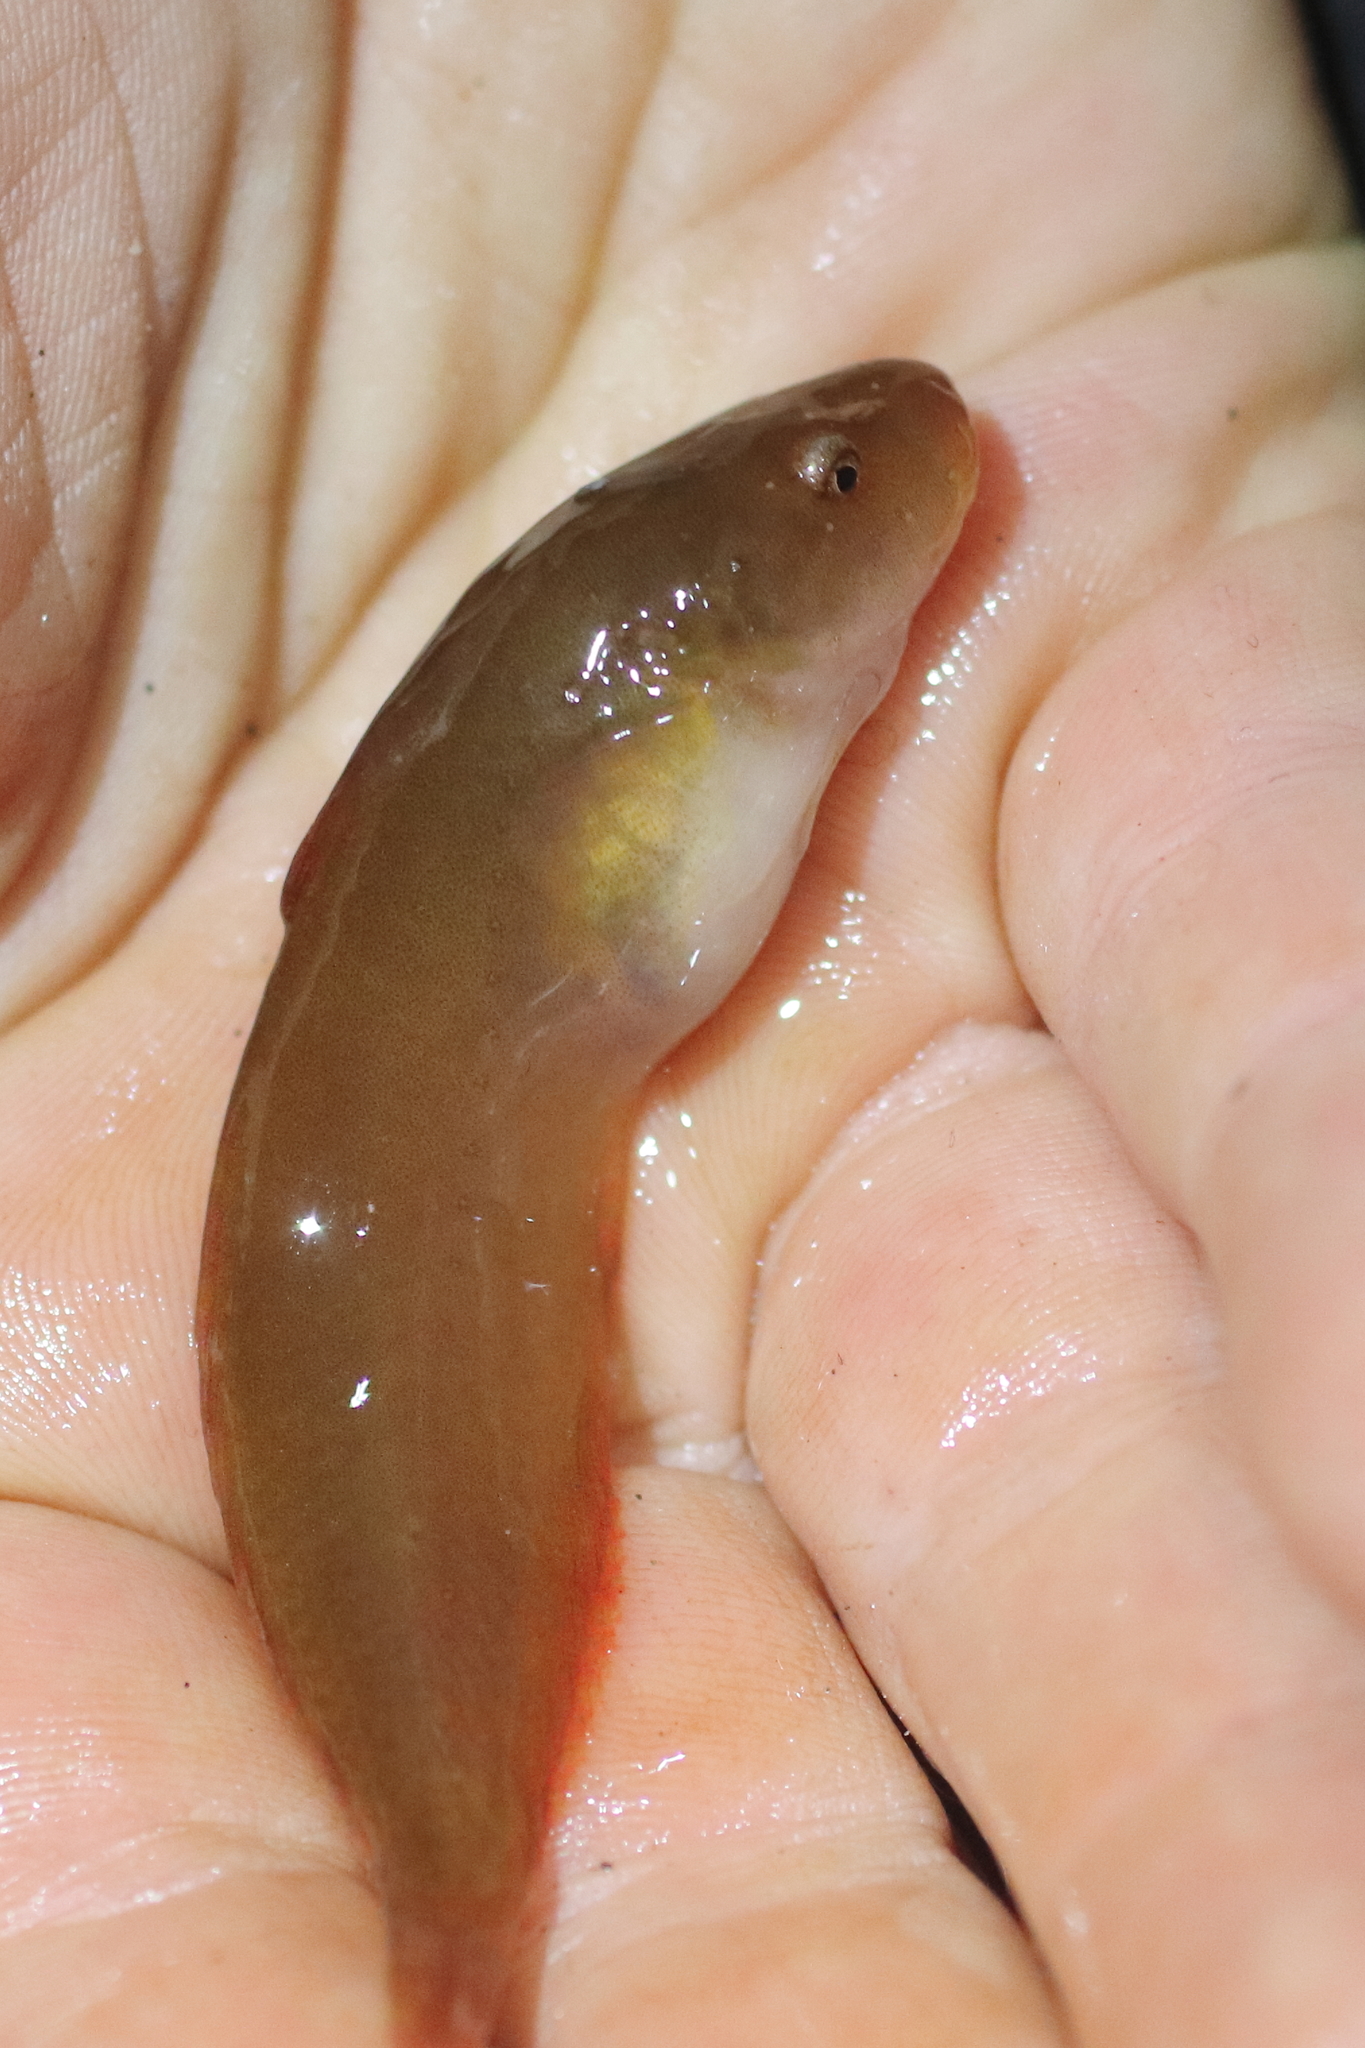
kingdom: Animalia
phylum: Chordata
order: Scorpaeniformes
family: Liparidae
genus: Liparis
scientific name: Liparis florae
